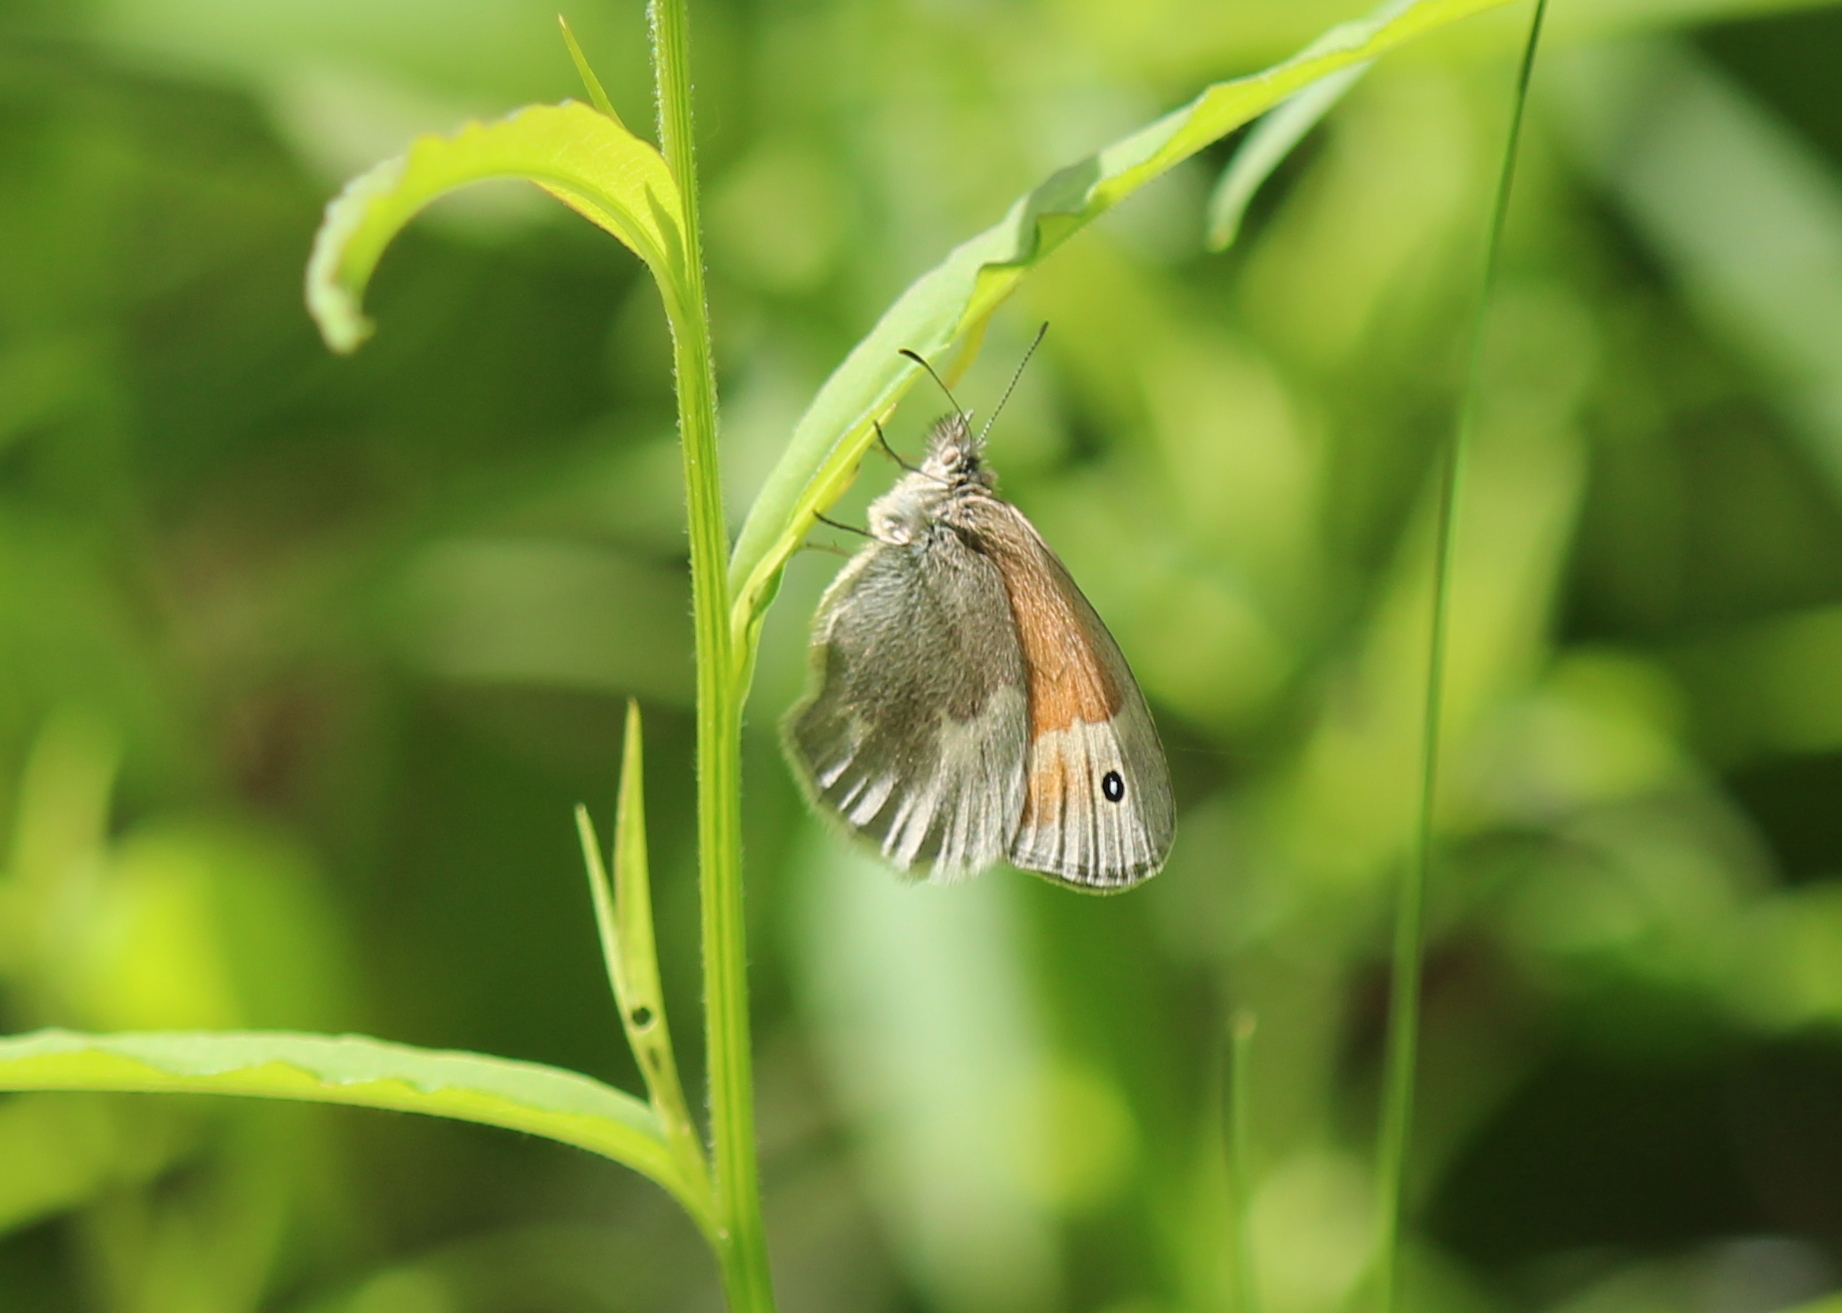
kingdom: Animalia
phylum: Arthropoda
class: Insecta
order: Lepidoptera
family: Nymphalidae
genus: Coenonympha
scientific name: Coenonympha california
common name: Common ringlet
